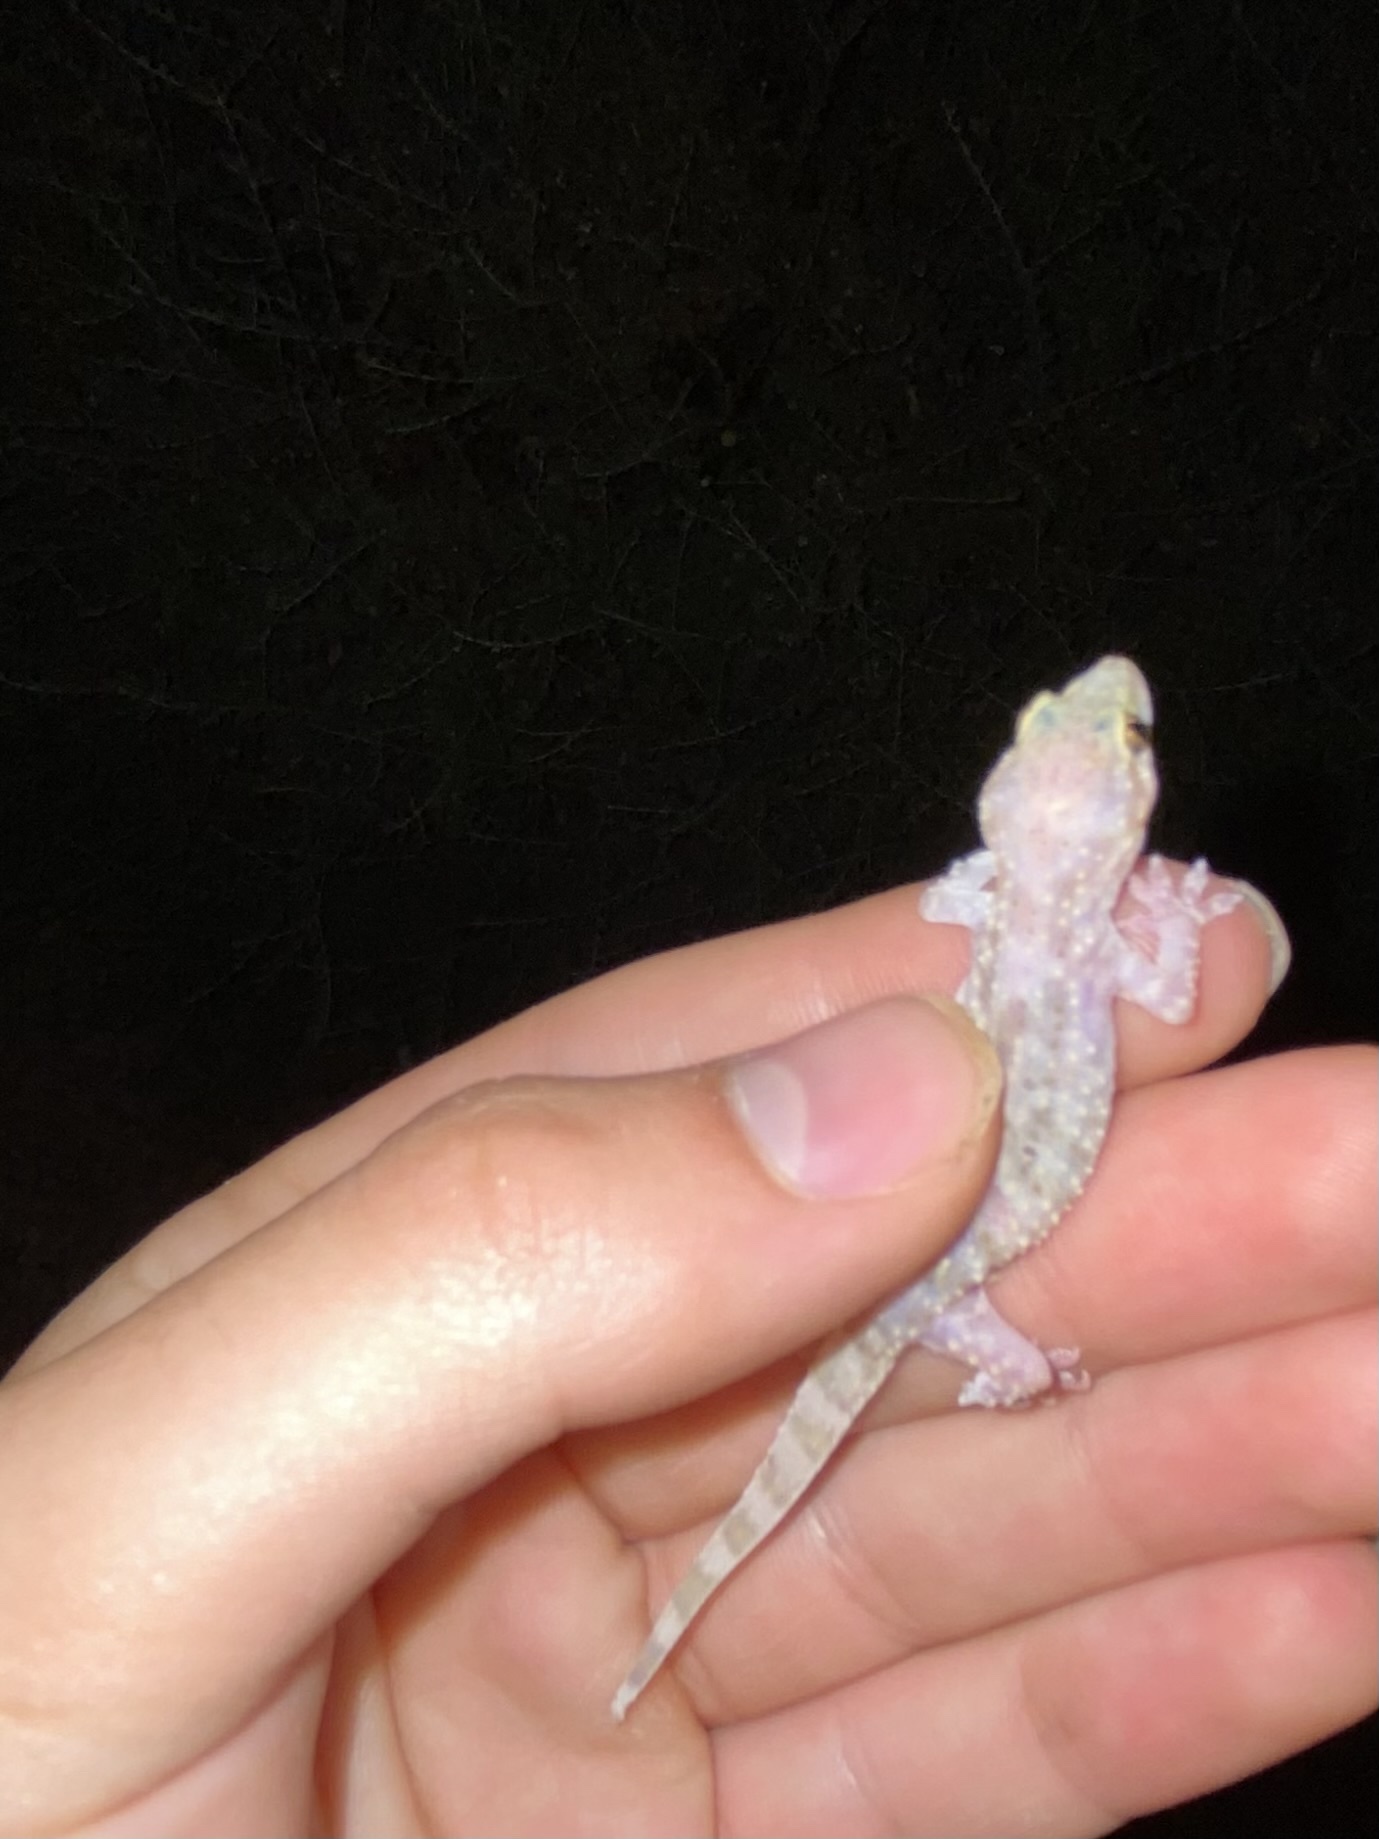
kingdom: Animalia
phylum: Chordata
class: Squamata
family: Gekkonidae
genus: Hemidactylus
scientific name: Hemidactylus turcicus
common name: Turkish gecko
